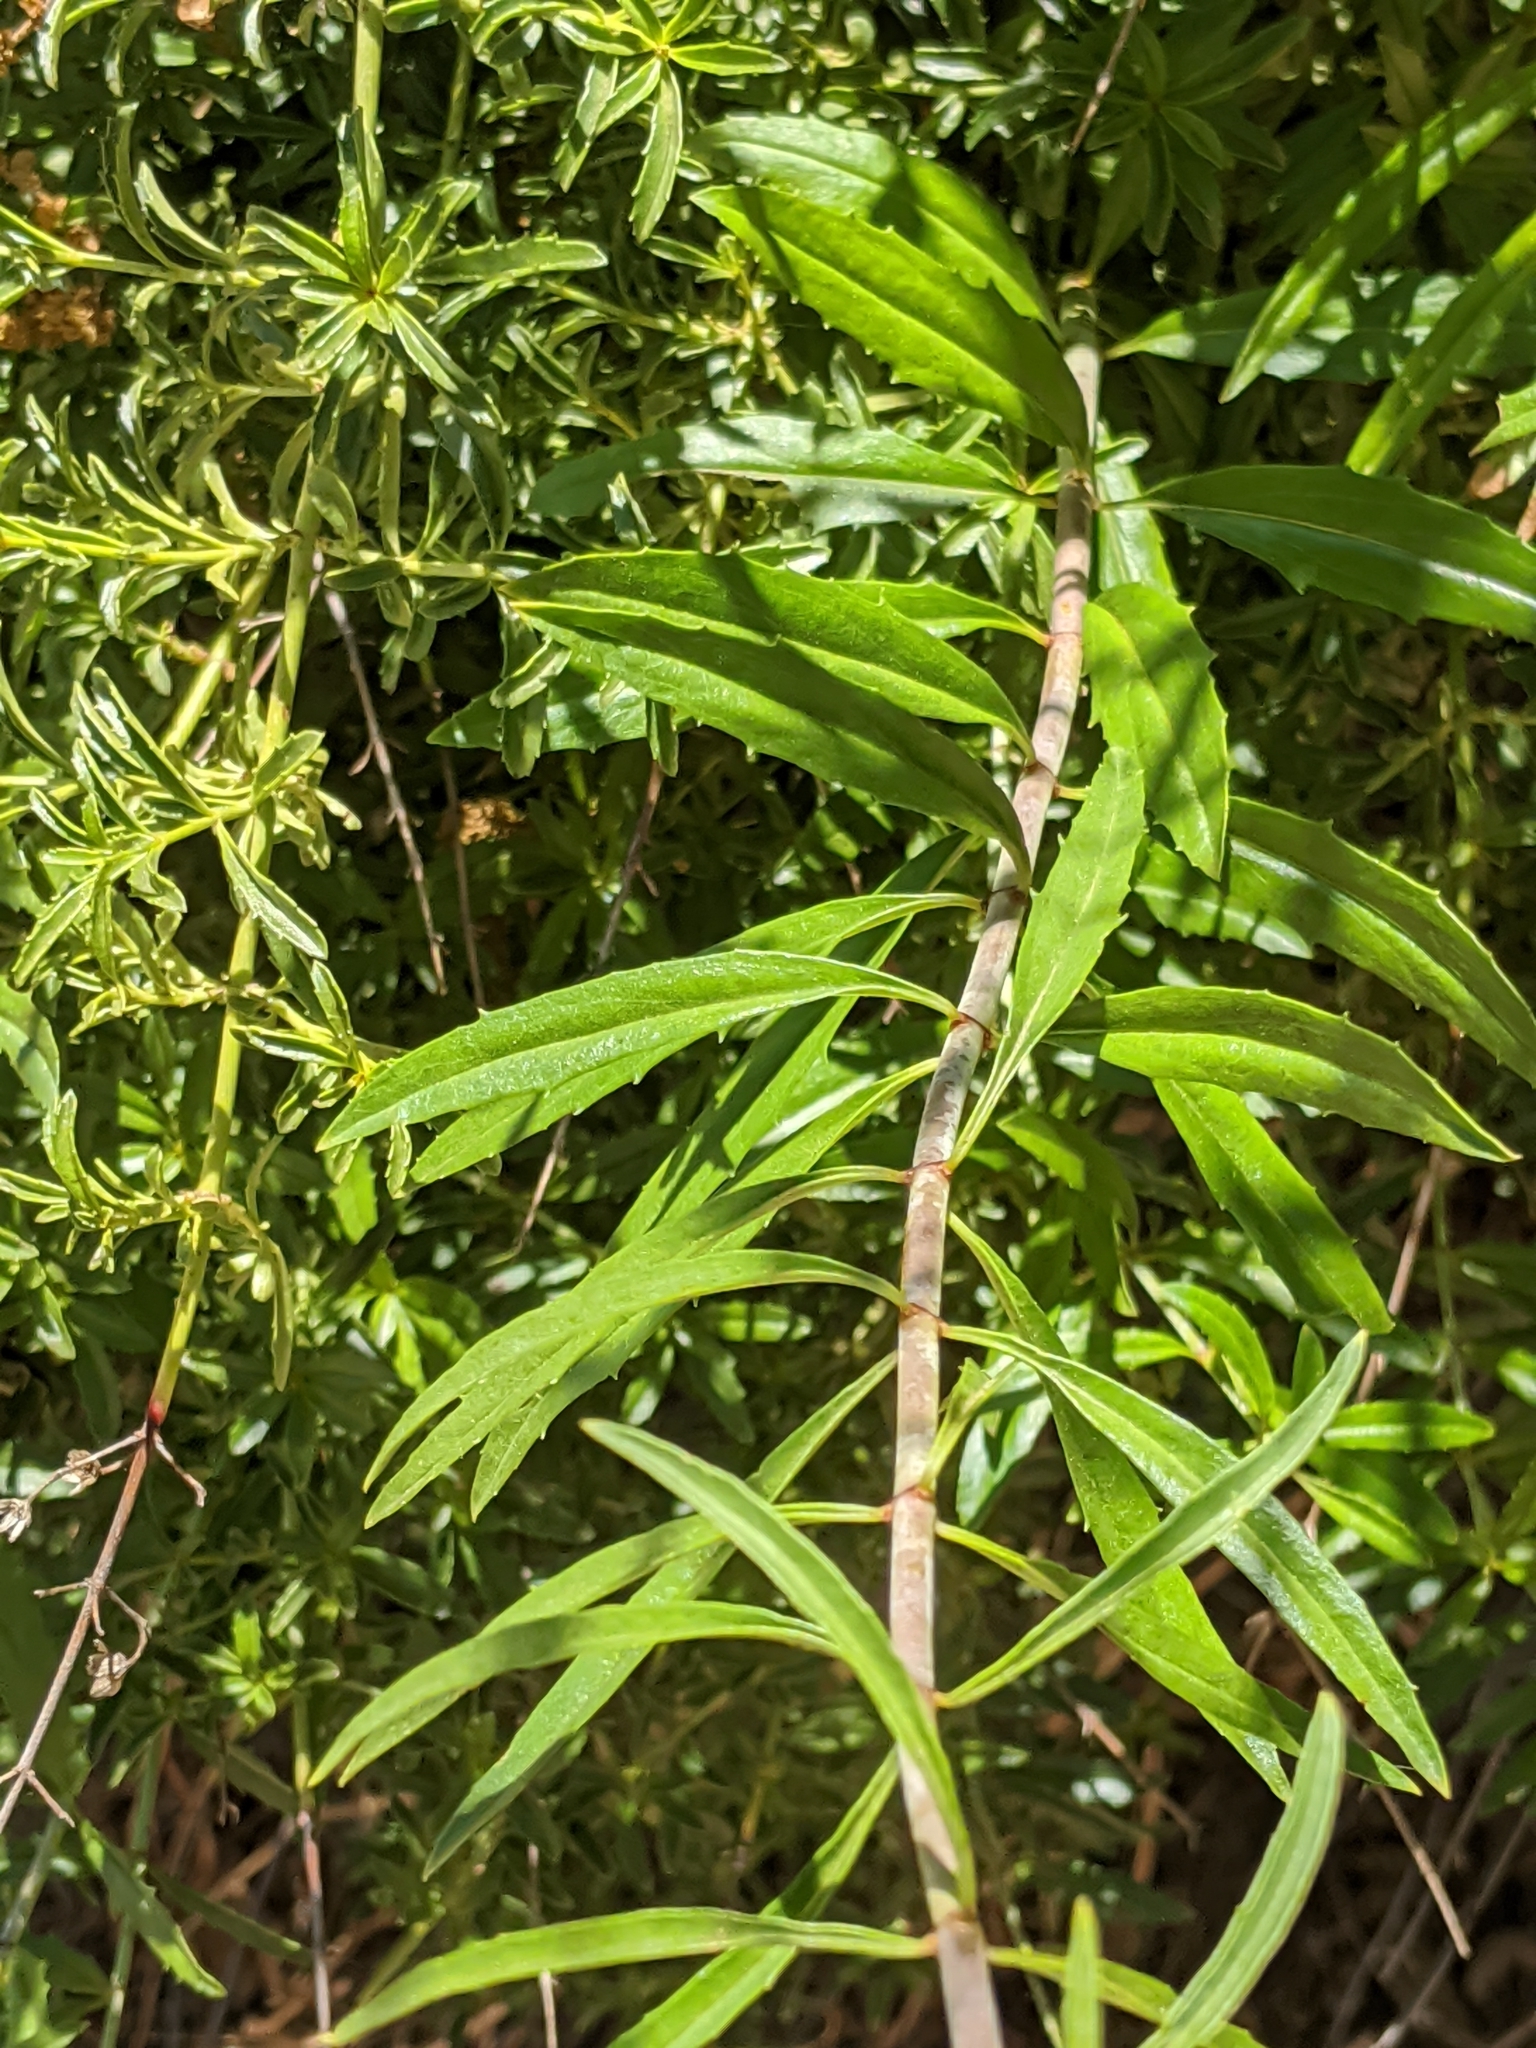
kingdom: Plantae
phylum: Tracheophyta
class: Magnoliopsida
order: Lamiales
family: Plantaginaceae
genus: Keckiella
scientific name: Keckiella ternata
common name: Scarlet keckiella
